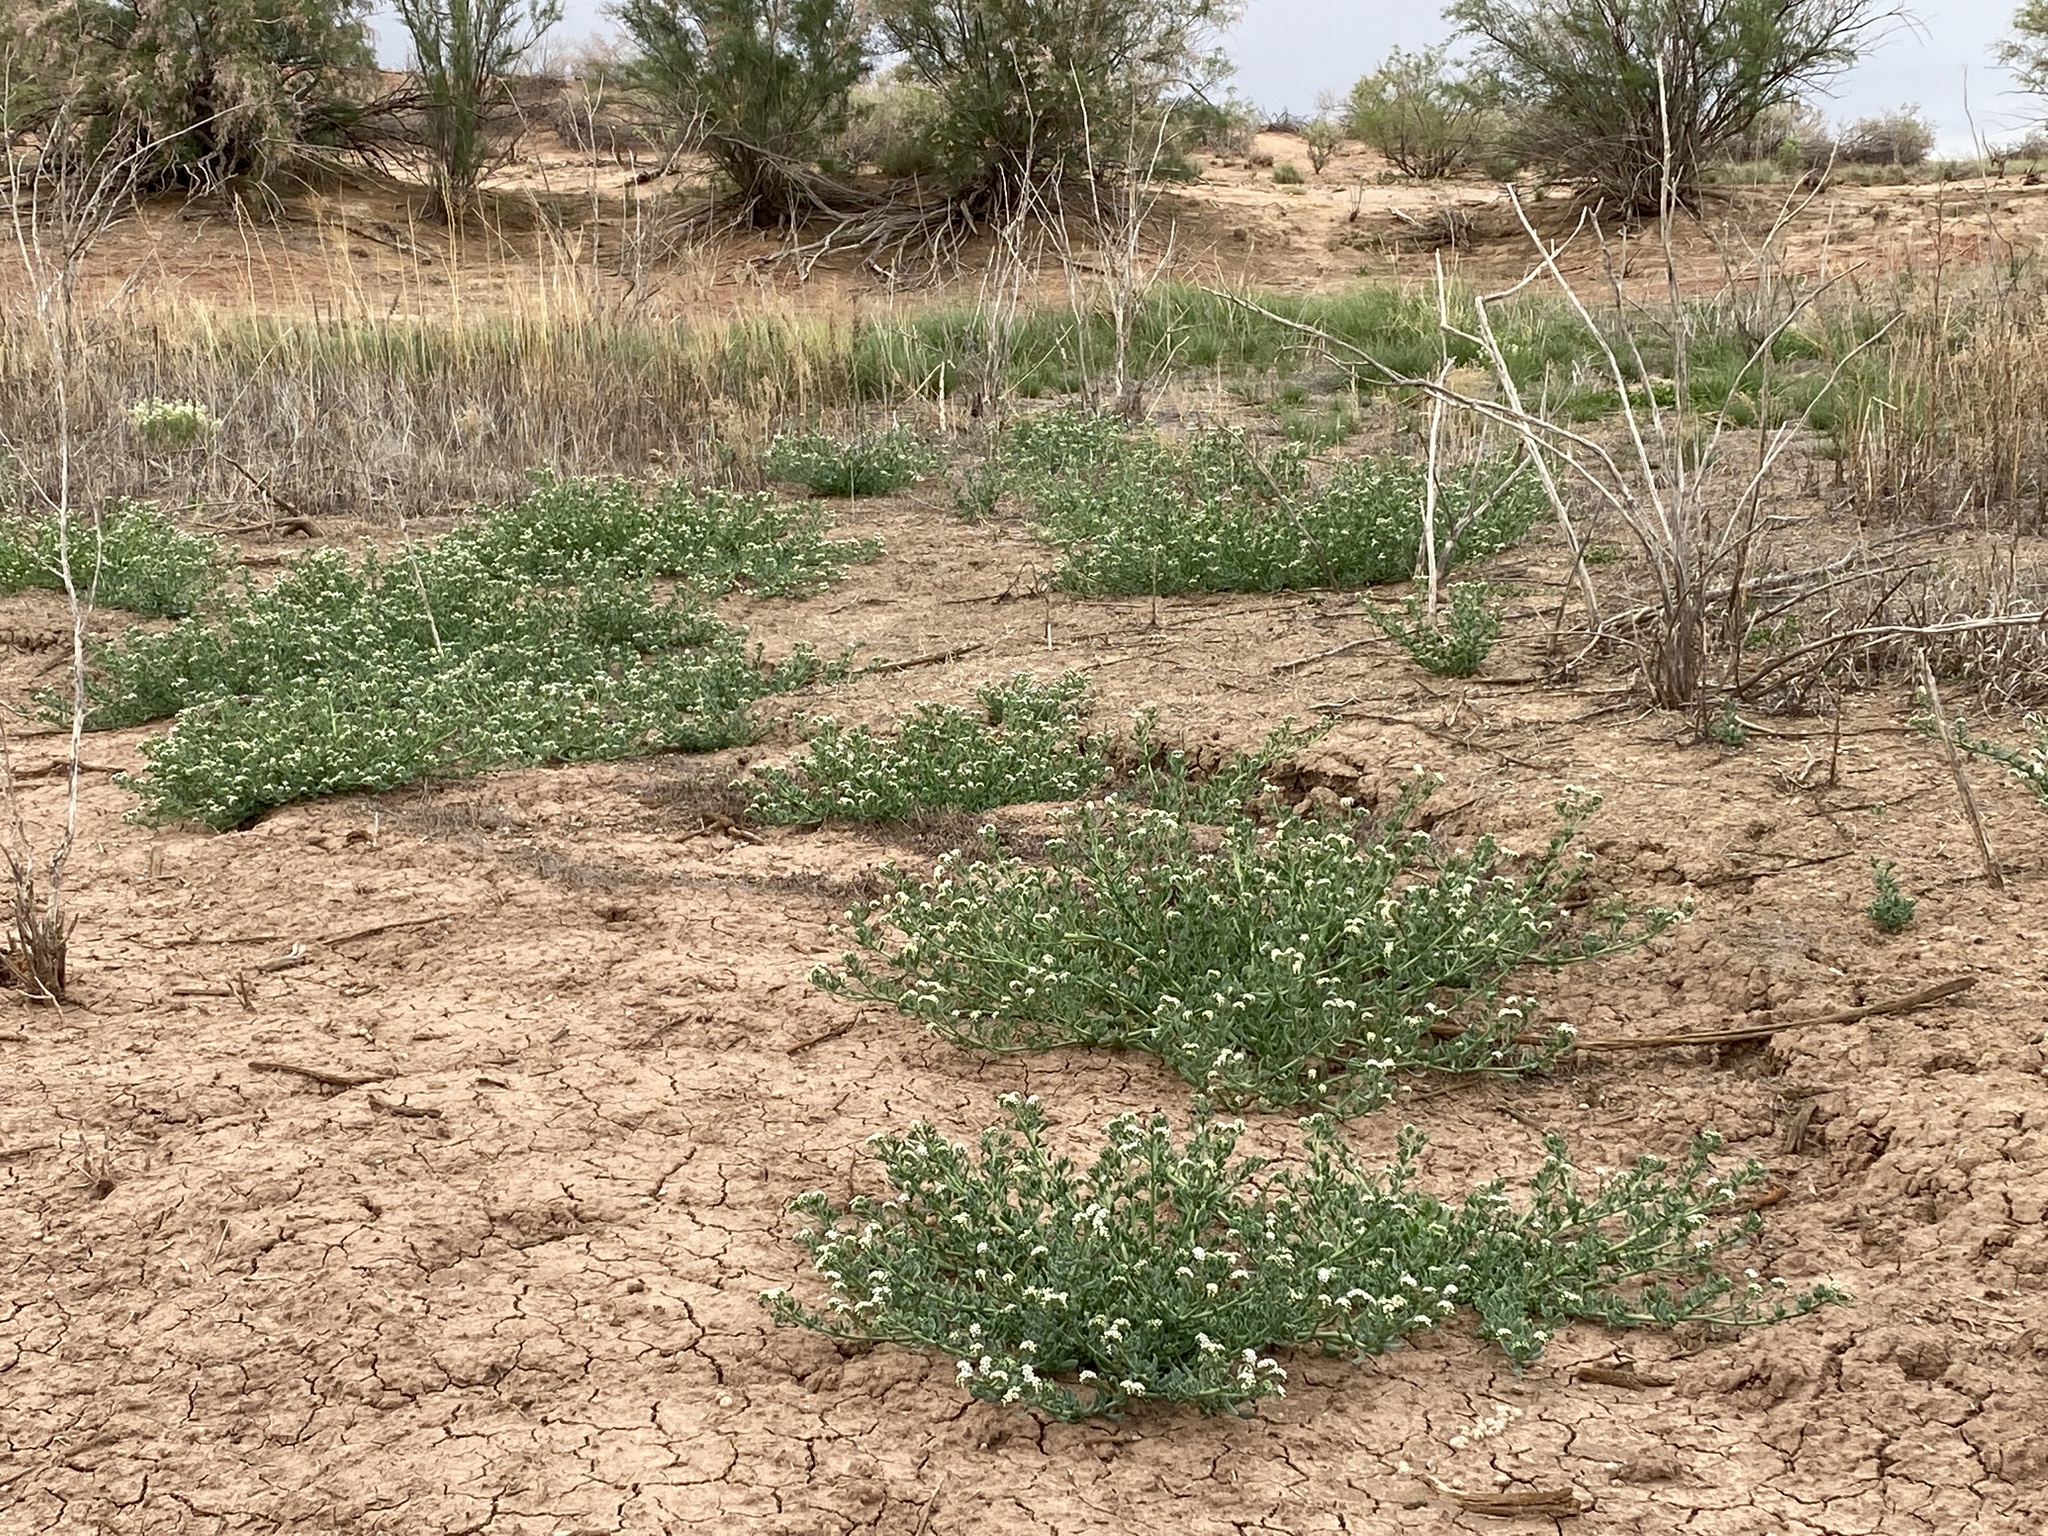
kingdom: Plantae
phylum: Tracheophyta
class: Magnoliopsida
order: Boraginales
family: Heliotropiaceae
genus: Heliotropium
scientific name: Heliotropium curassavicum
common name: Seaside heliotrope
